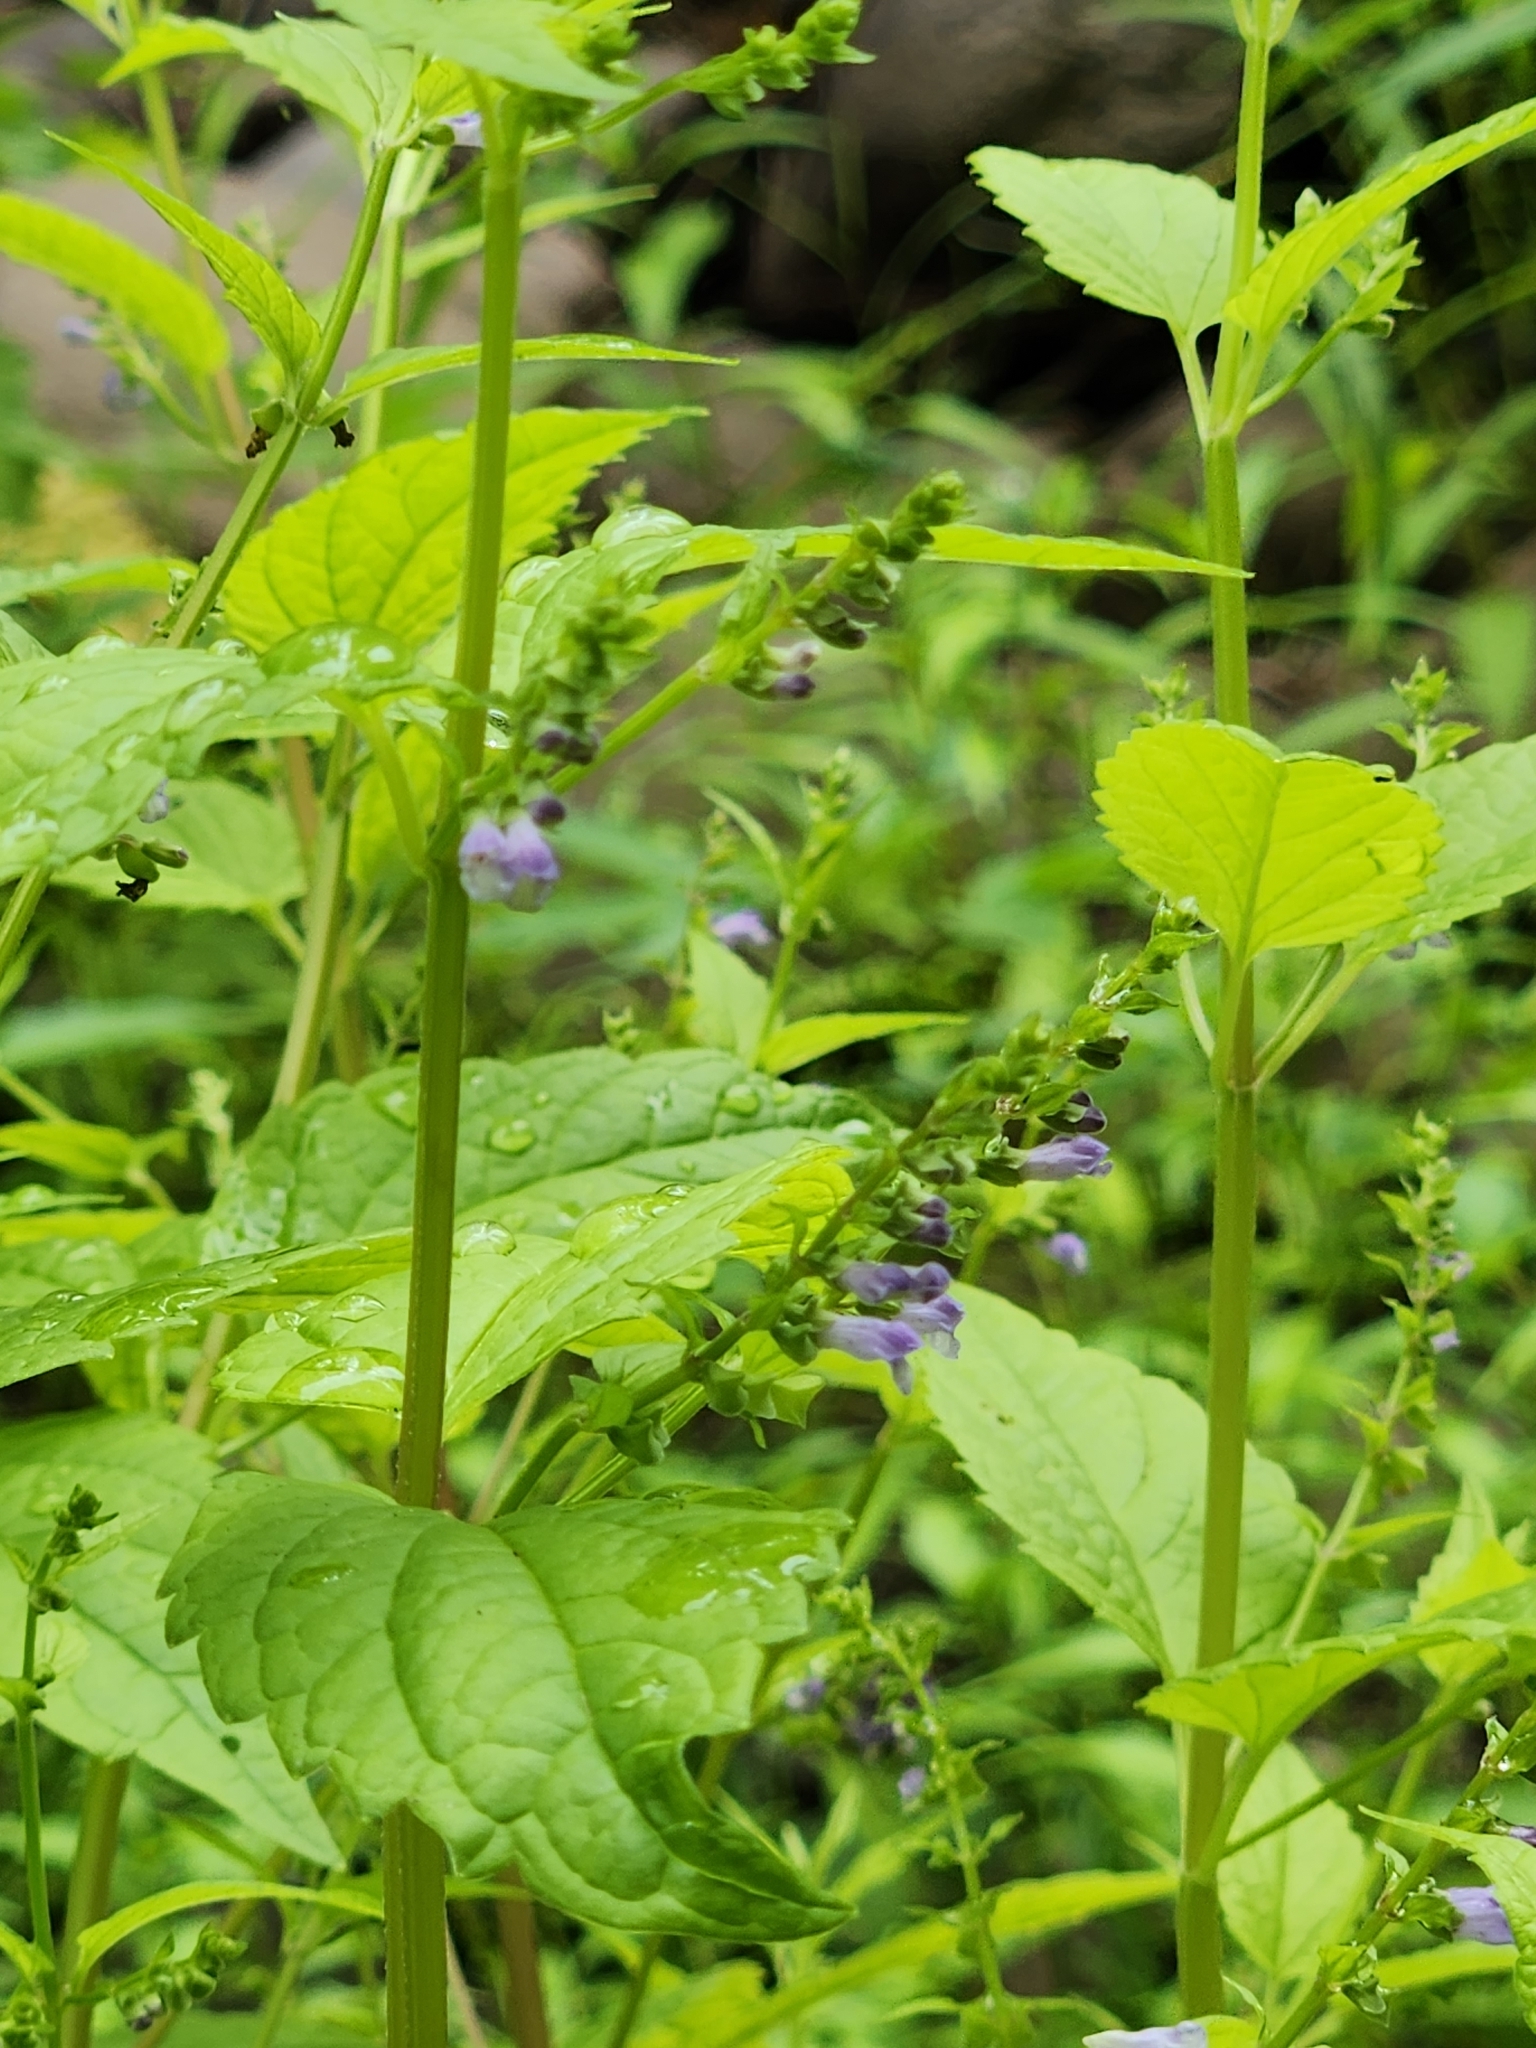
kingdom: Plantae
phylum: Tracheophyta
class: Magnoliopsida
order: Lamiales
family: Lamiaceae
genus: Scutellaria
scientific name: Scutellaria lateriflora
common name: Blue skullcap
